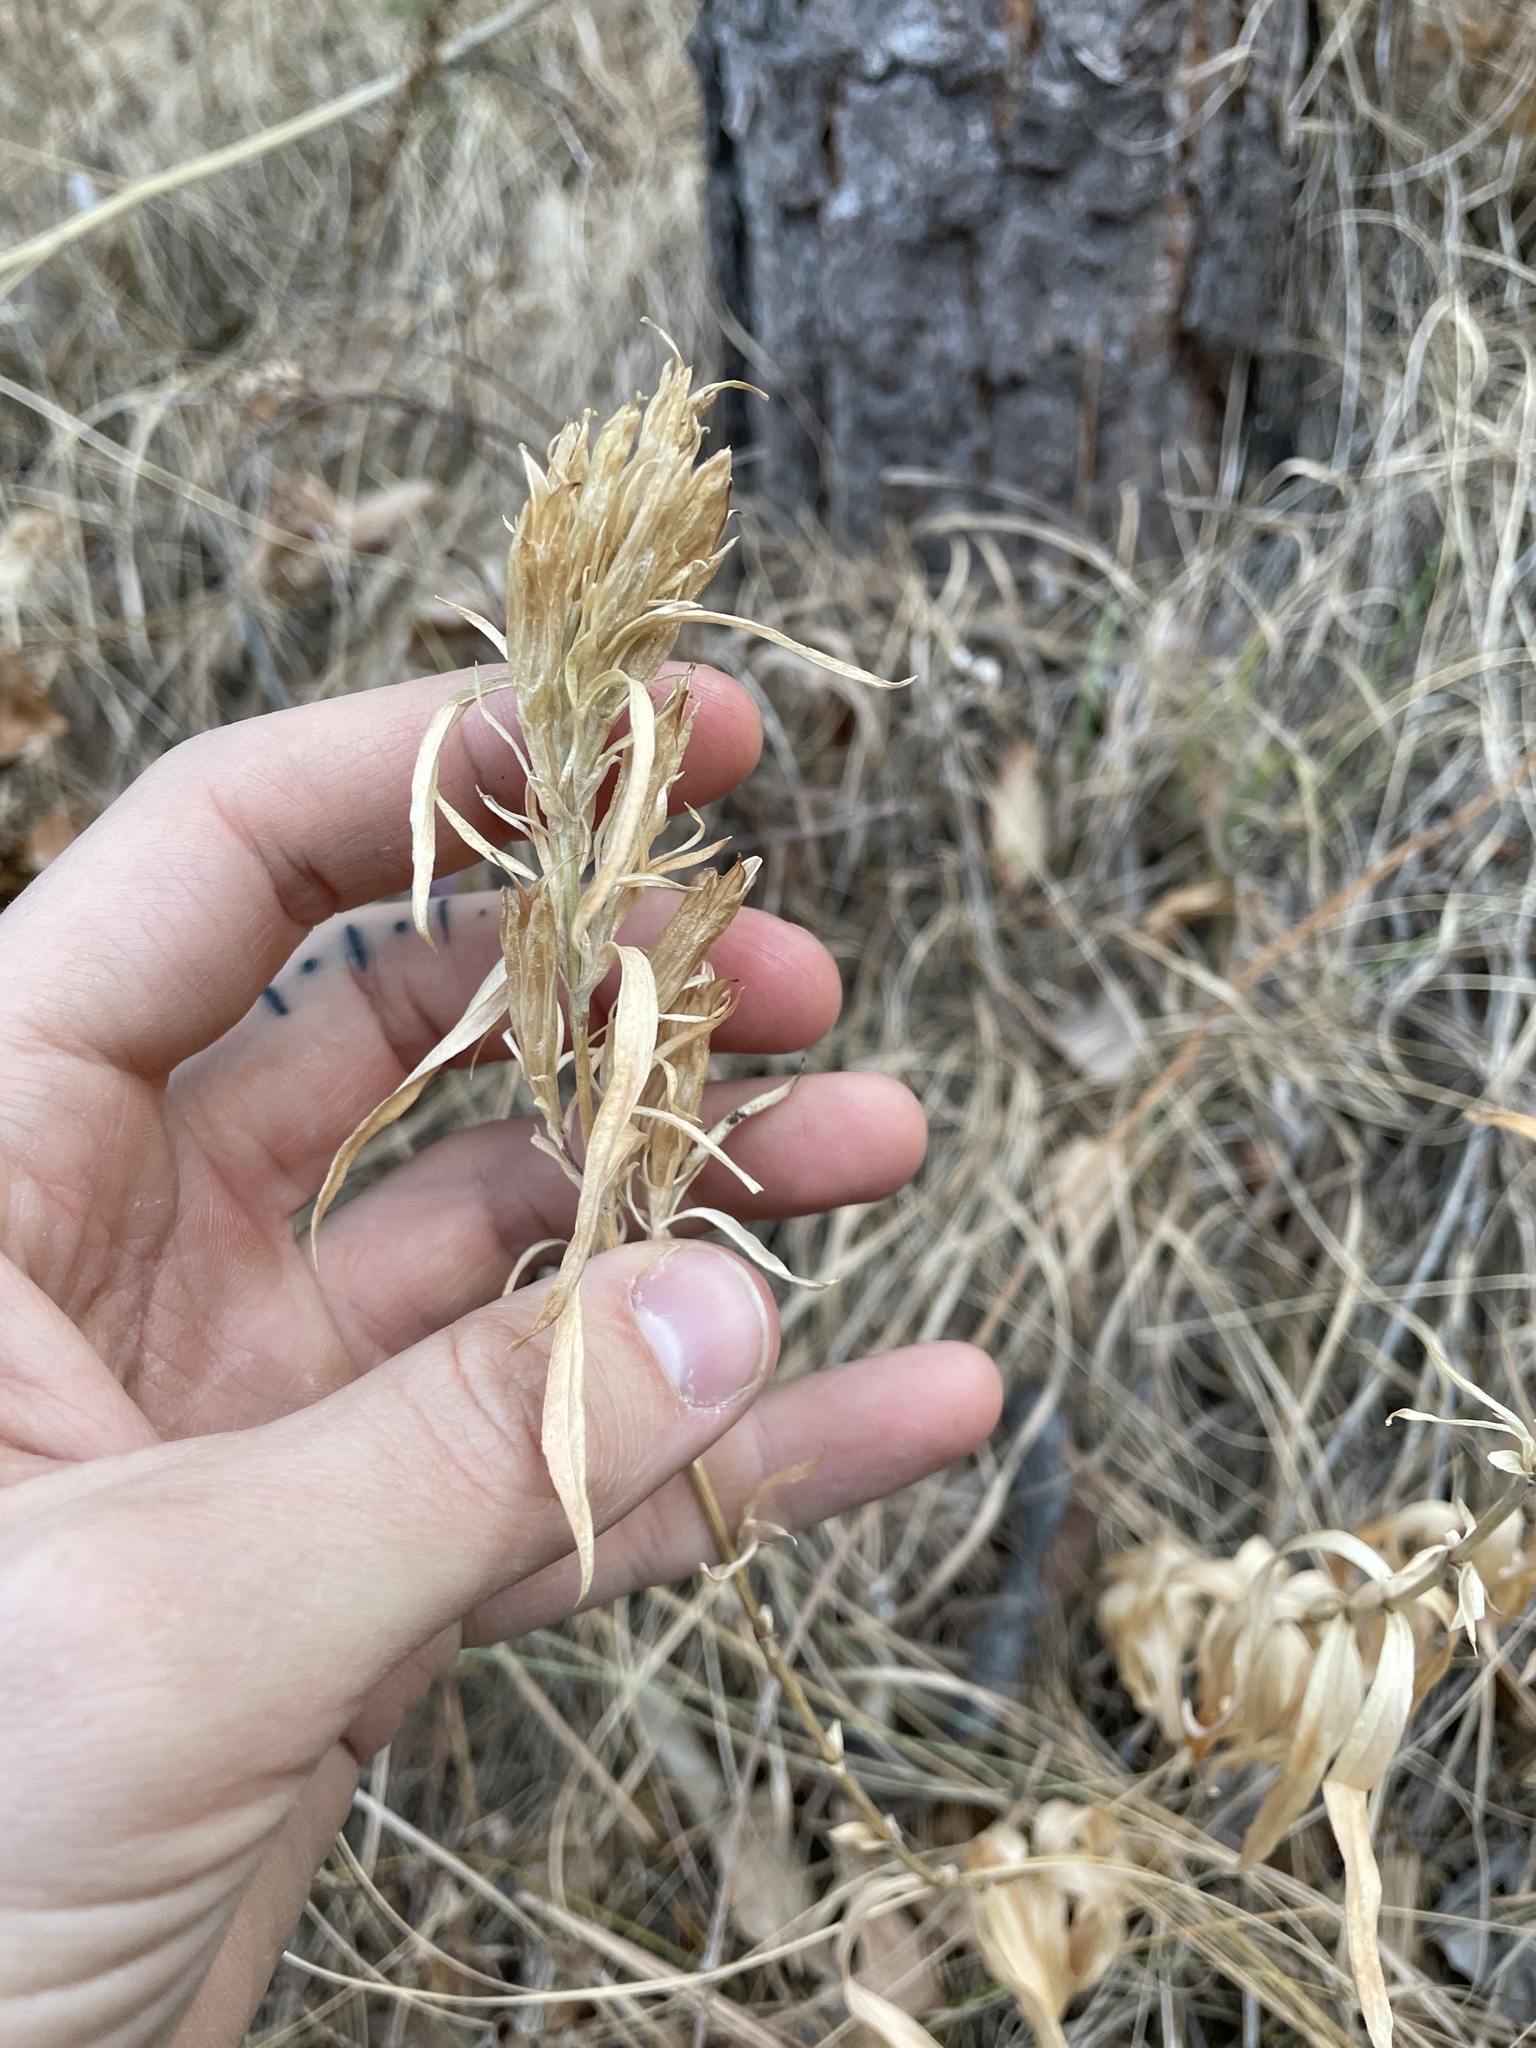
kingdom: Plantae
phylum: Tracheophyta
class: Magnoliopsida
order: Gentianales
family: Gentianaceae
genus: Gentiana
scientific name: Gentiana affinis
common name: Rocky mountain gentian
